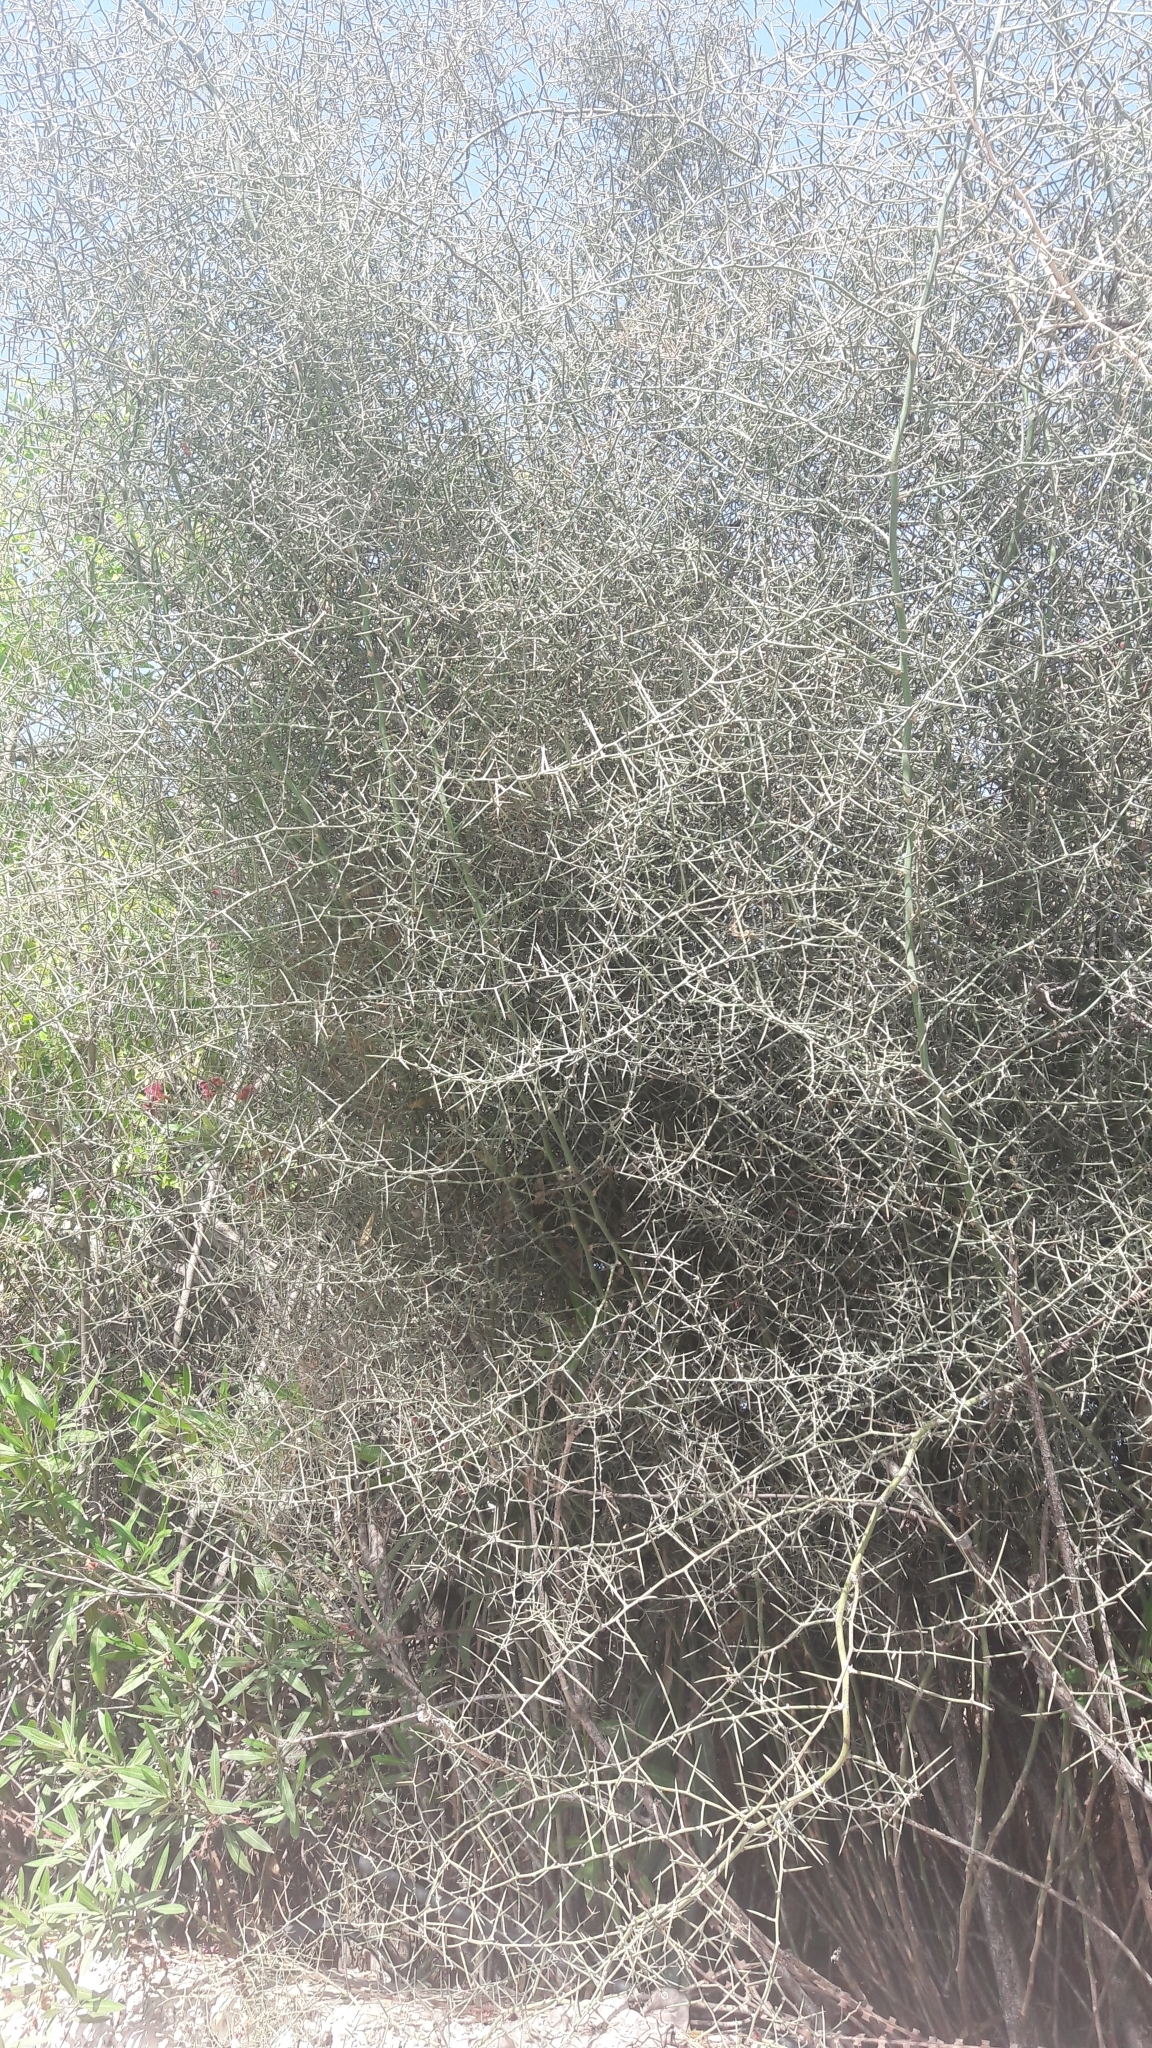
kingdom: Plantae
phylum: Tracheophyta
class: Liliopsida
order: Asparagales
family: Asparagaceae
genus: Asparagus
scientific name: Asparagus horridus
